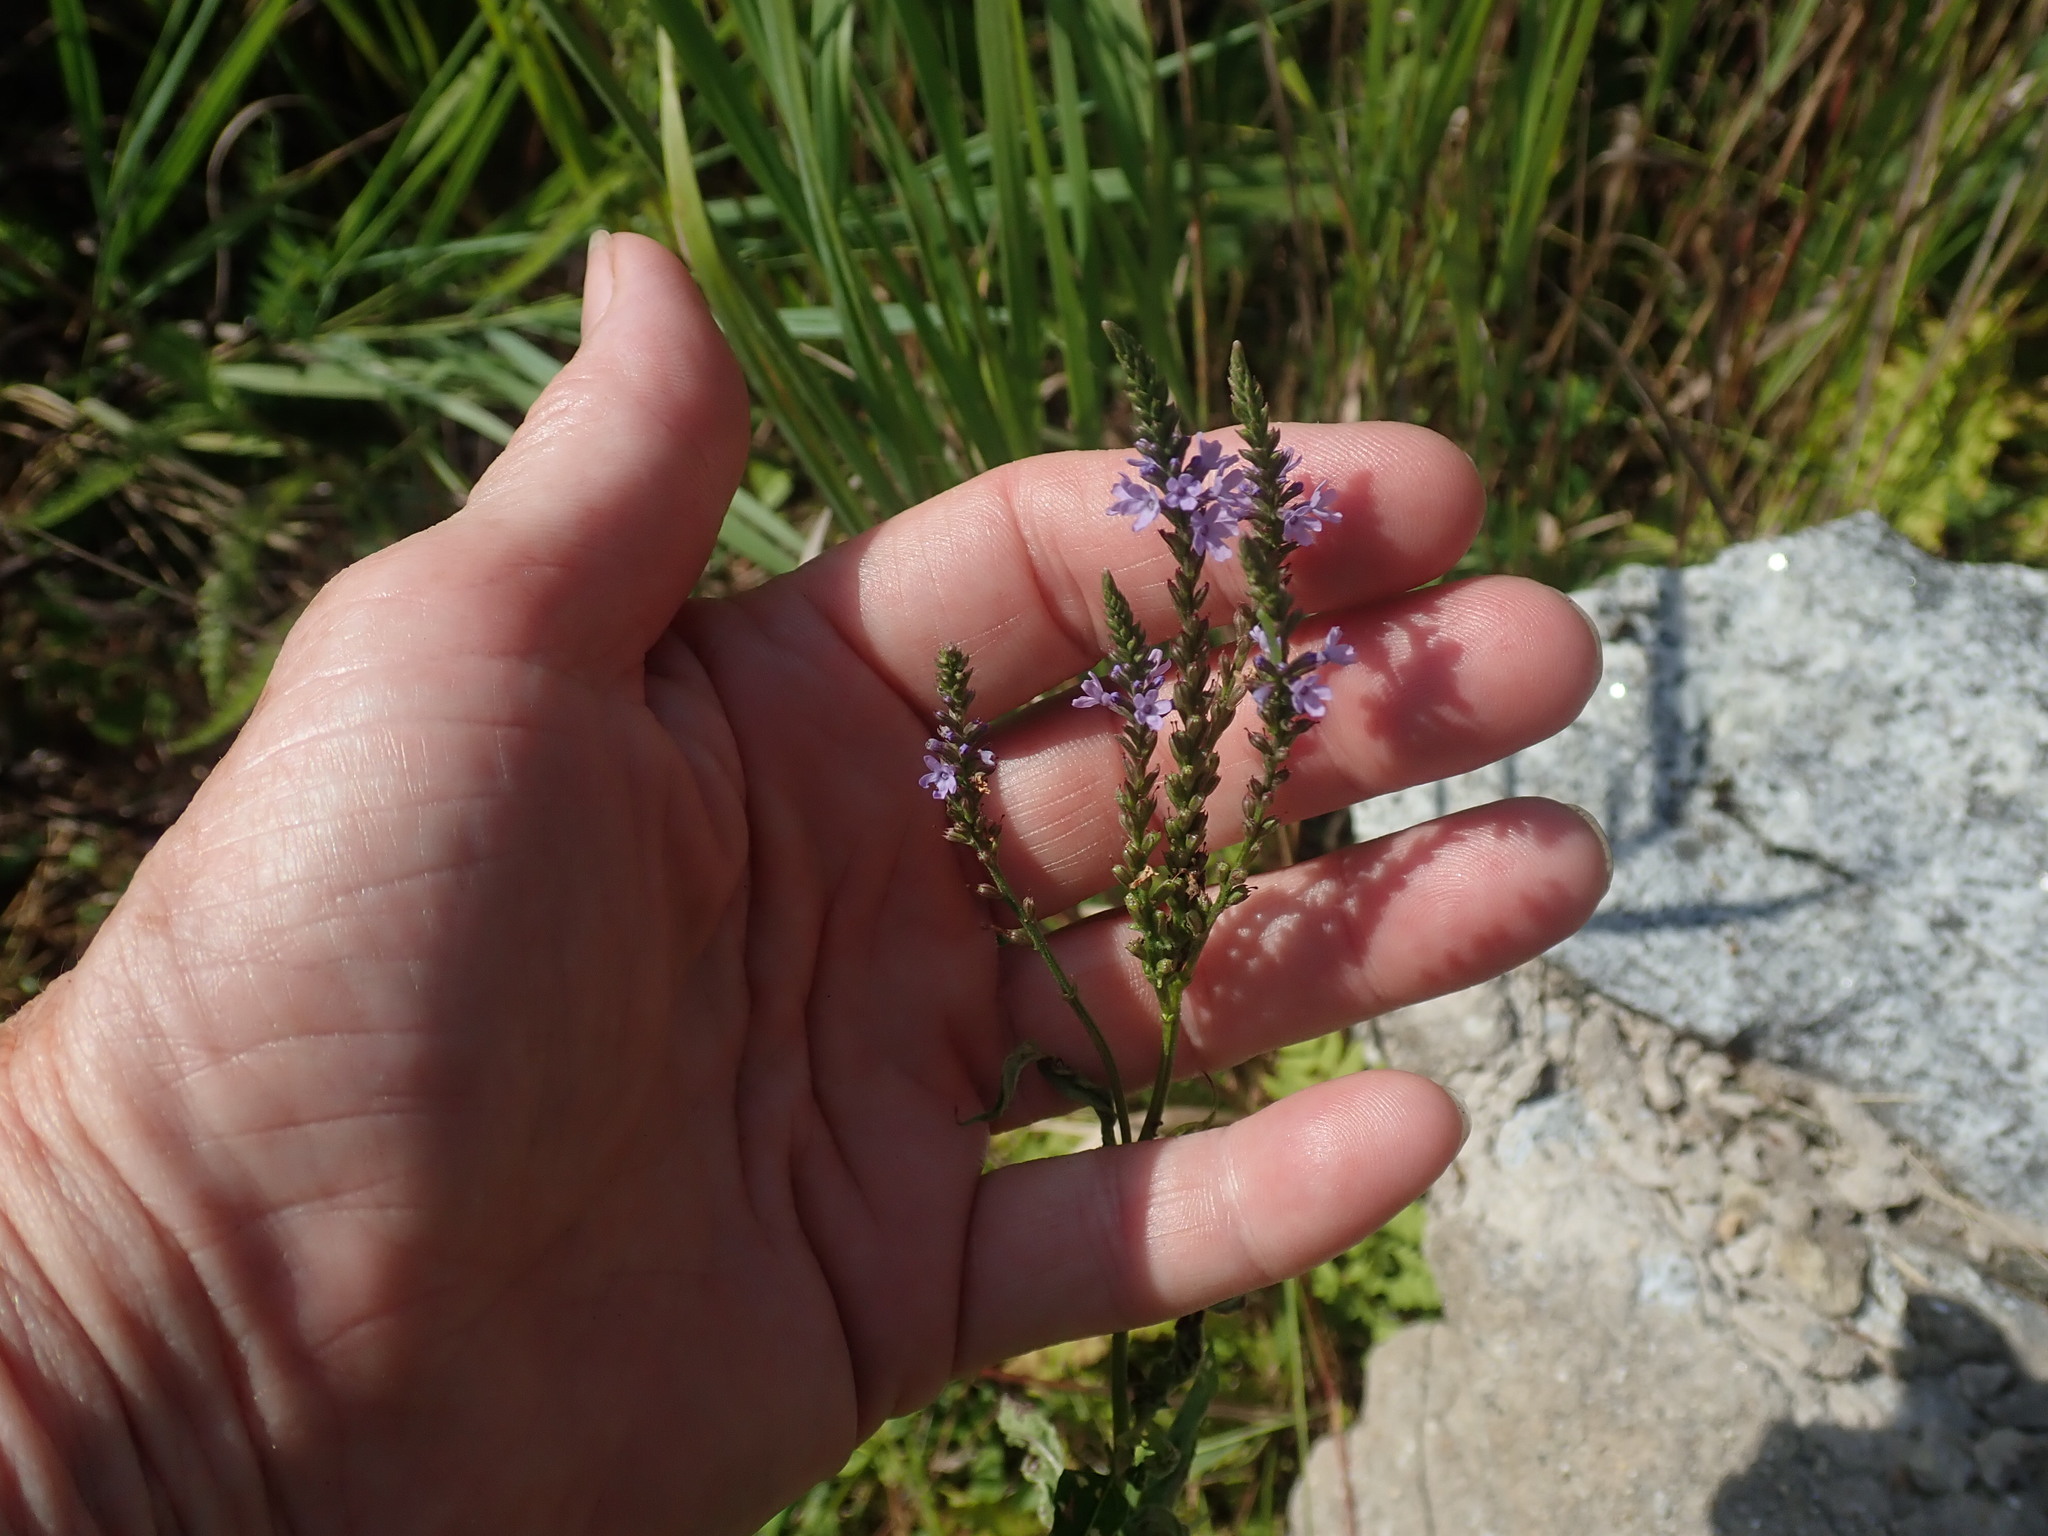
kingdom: Plantae
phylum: Tracheophyta
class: Magnoliopsida
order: Lamiales
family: Verbenaceae
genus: Verbena
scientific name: Verbena hastata
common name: American blue vervain
